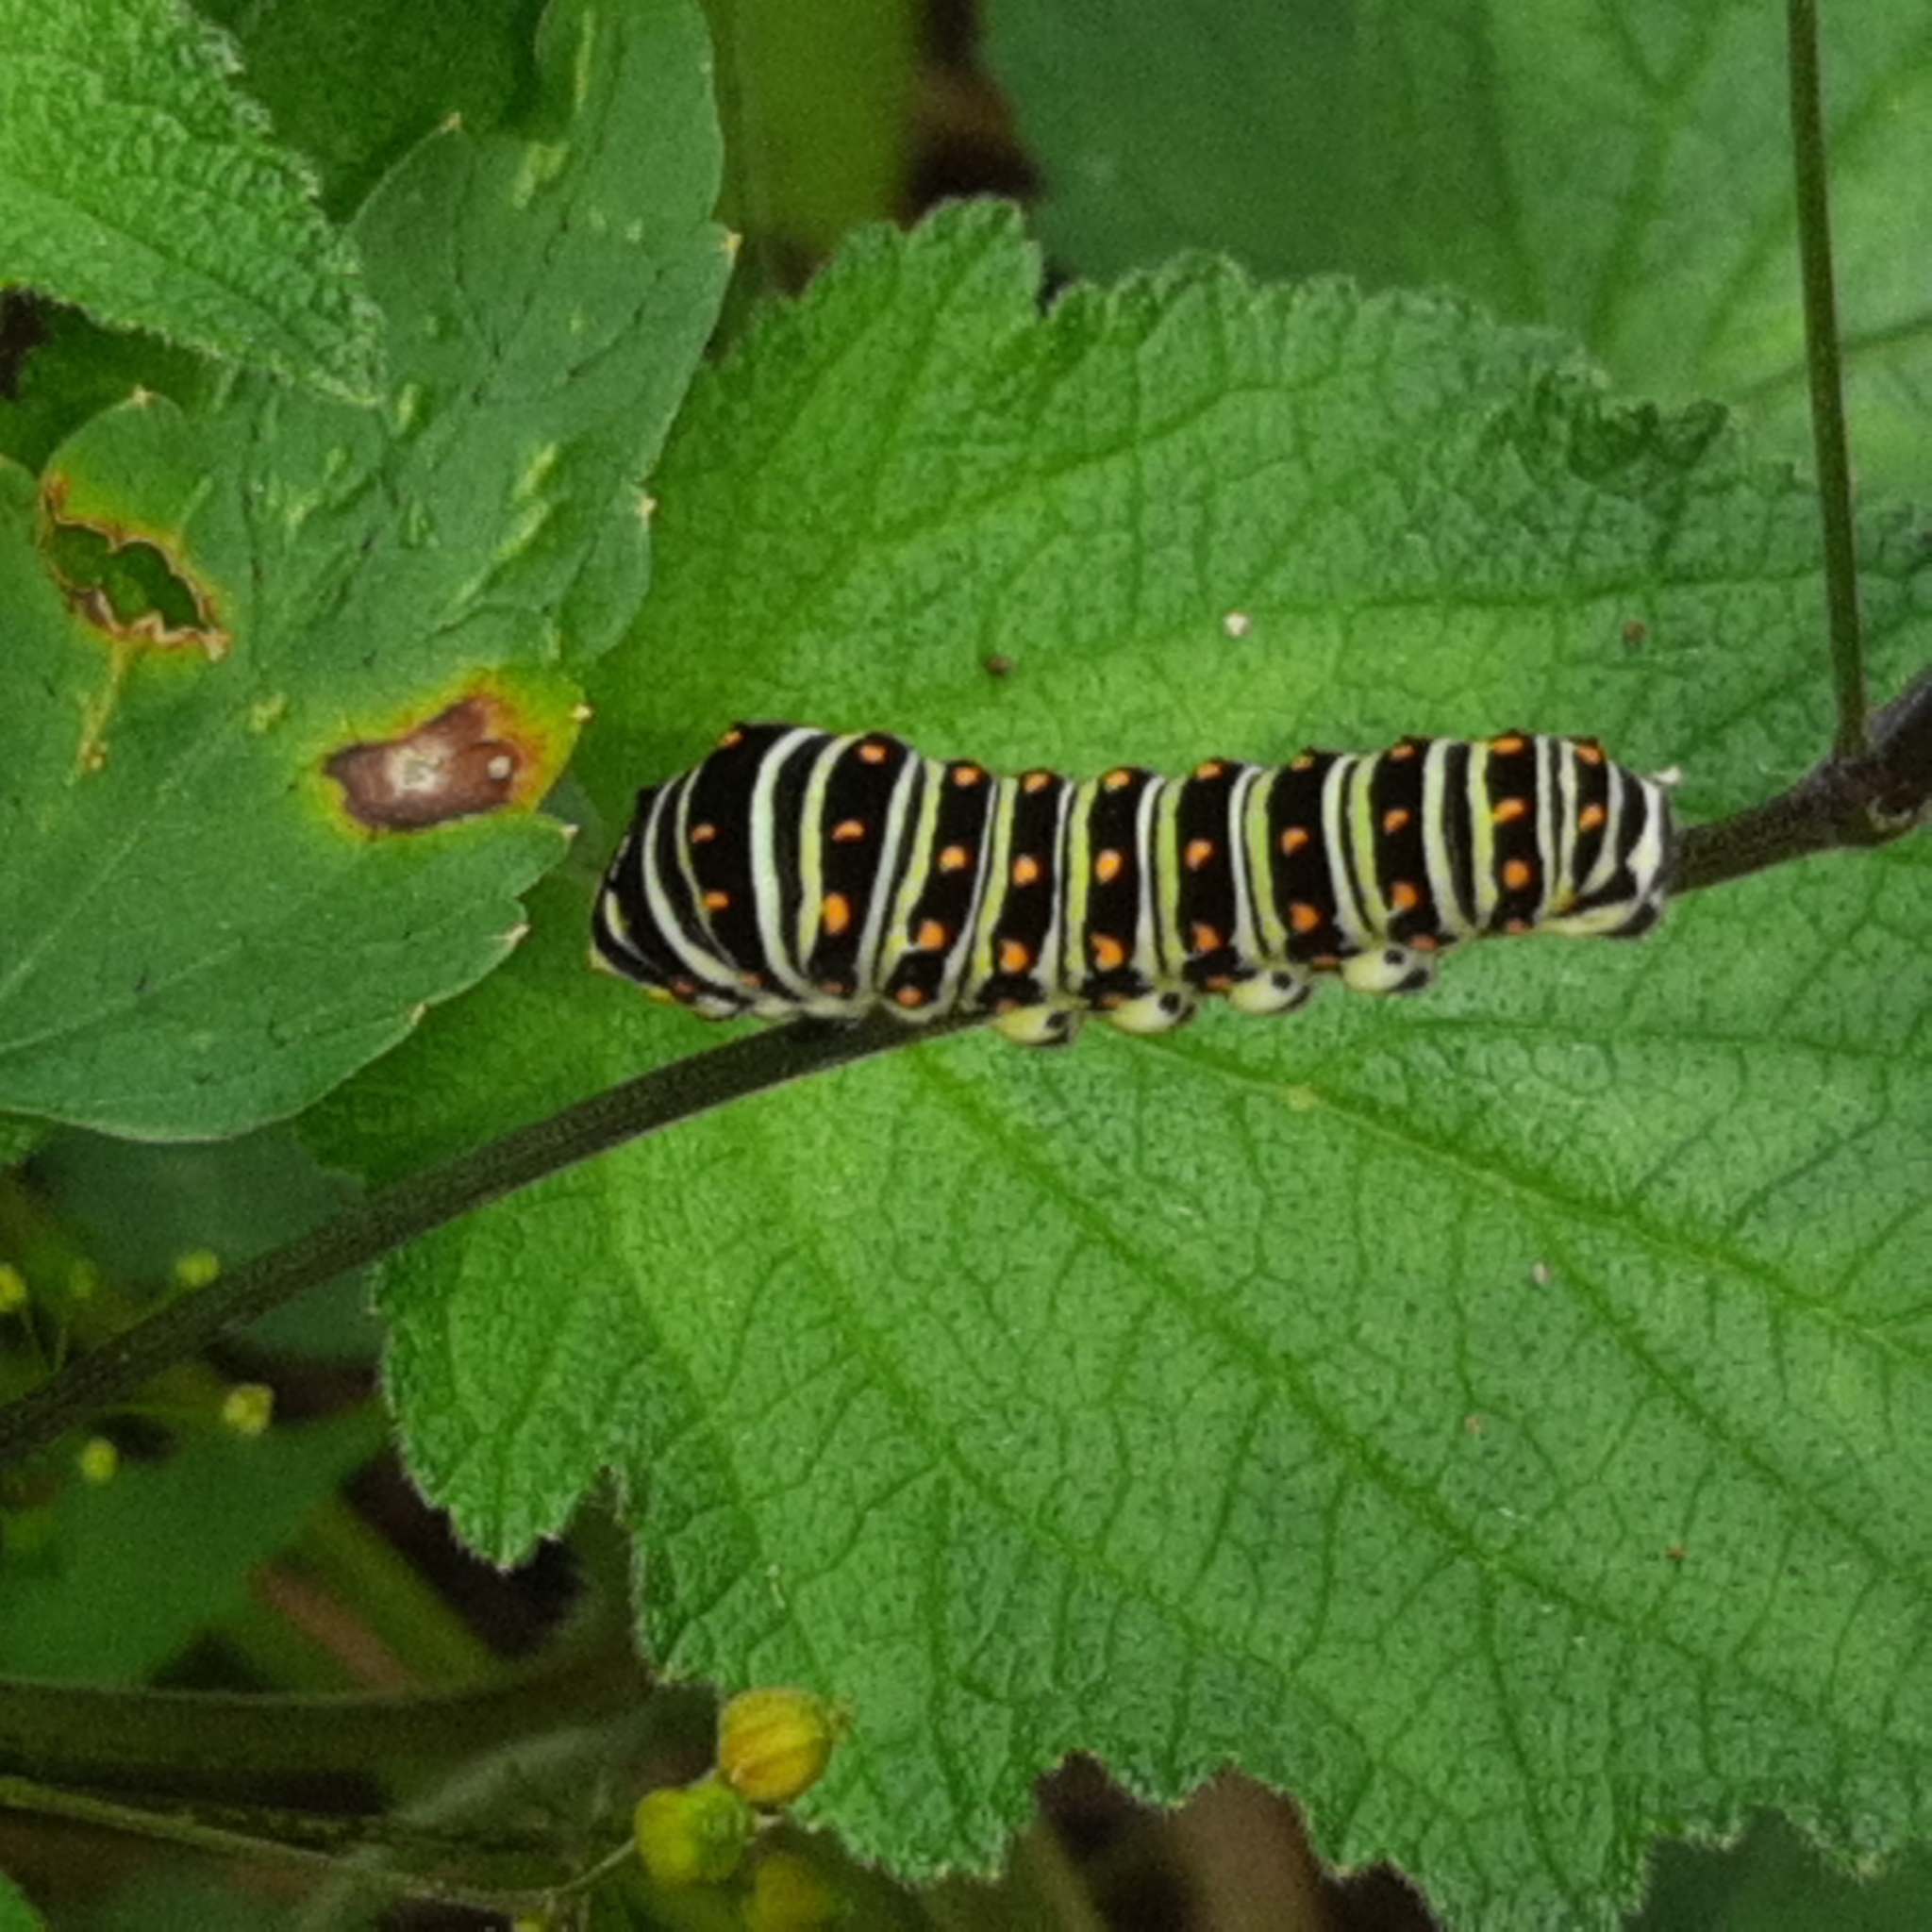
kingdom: Animalia
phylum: Arthropoda
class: Insecta
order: Lepidoptera
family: Papilionidae
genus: Papilio
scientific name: Papilio polyxenes
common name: Black swallowtail
